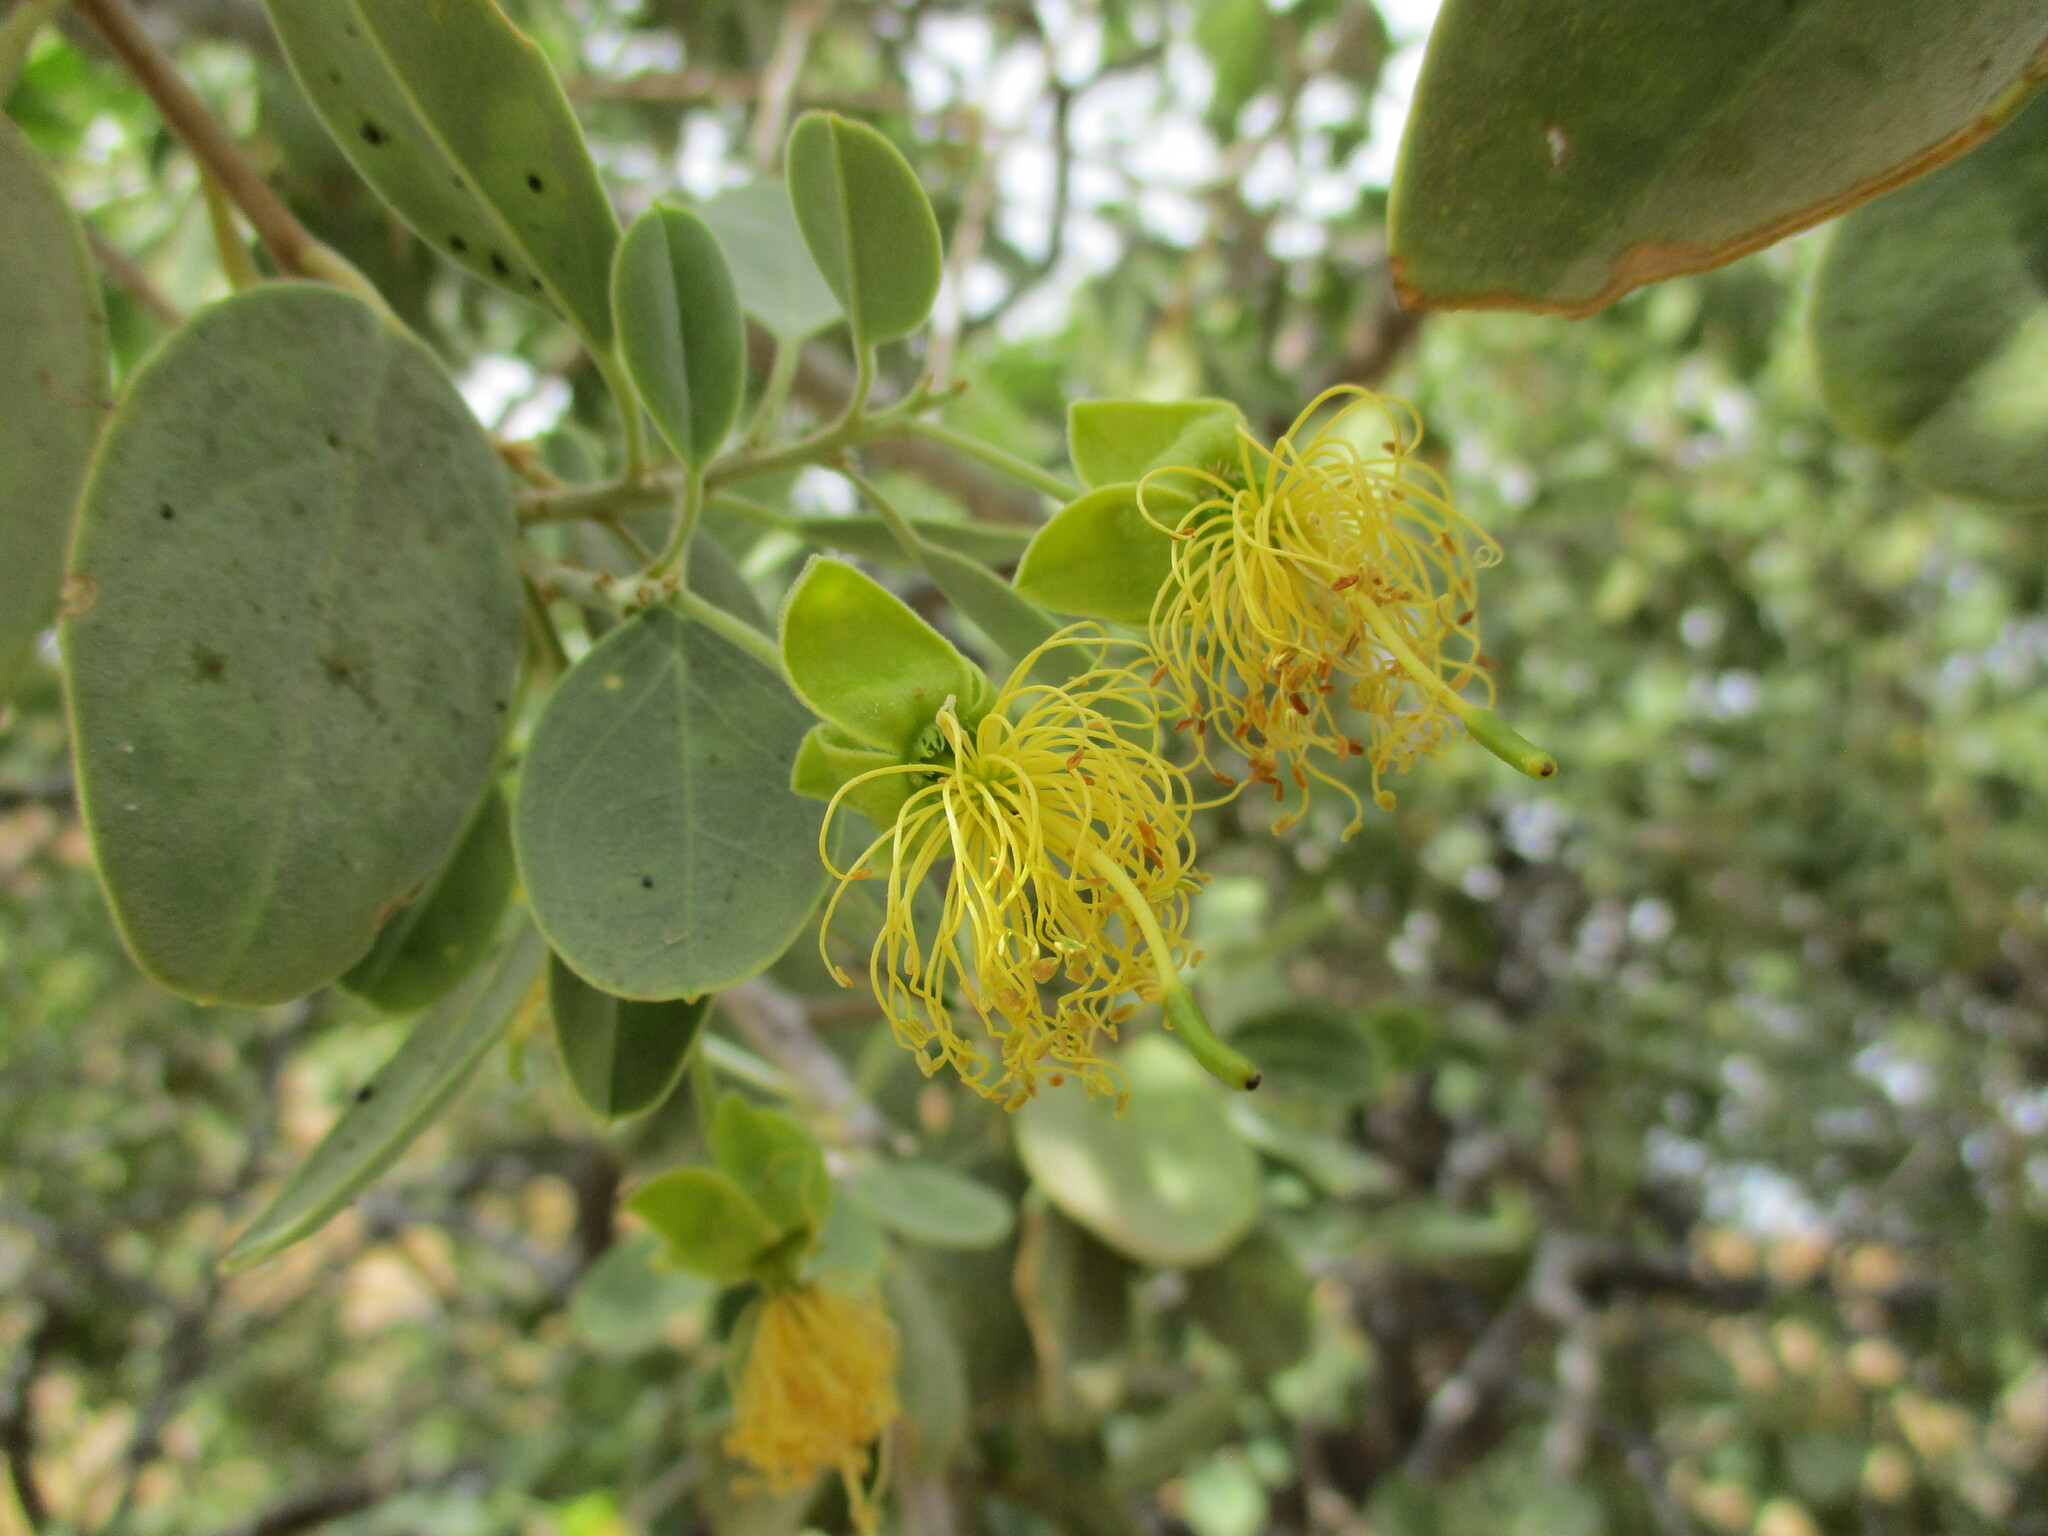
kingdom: Plantae
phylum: Tracheophyta
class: Magnoliopsida
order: Brassicales
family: Capparaceae
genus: Maerua
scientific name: Maerua schinzii
